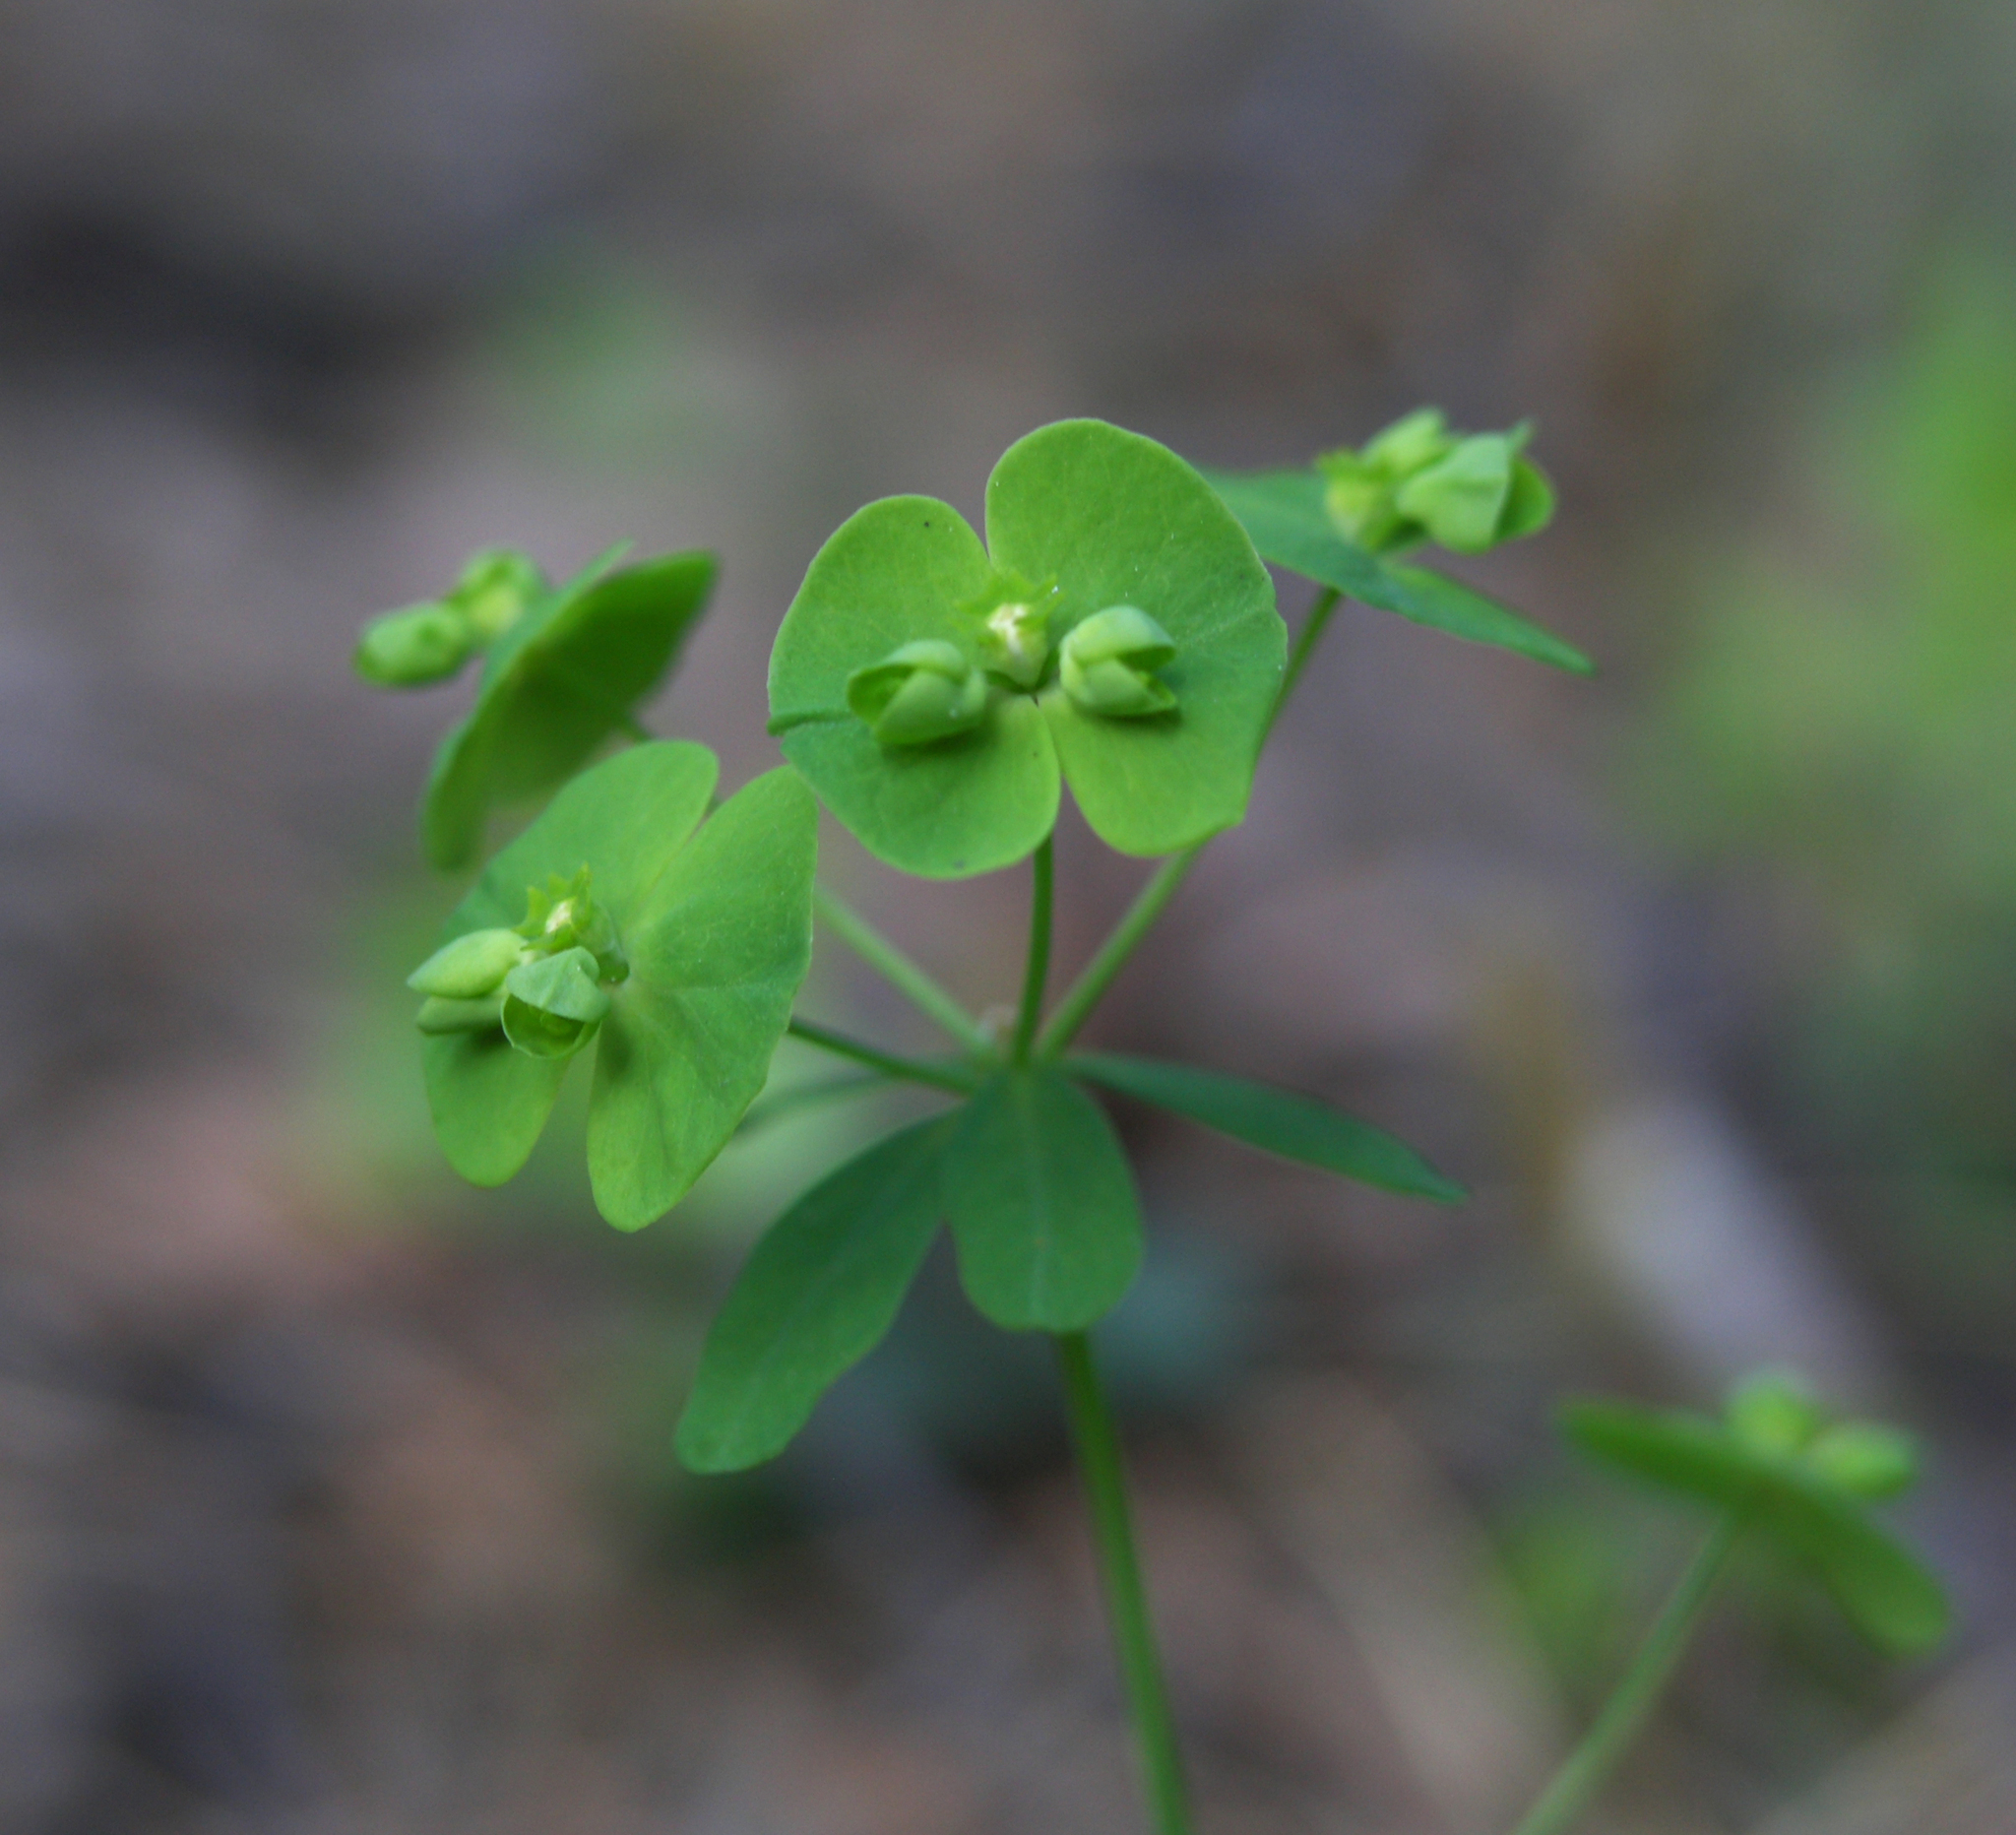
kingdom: Plantae
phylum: Tracheophyta
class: Magnoliopsida
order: Malpighiales
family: Euphorbiaceae
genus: Euphorbia
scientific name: Euphorbia borealis
